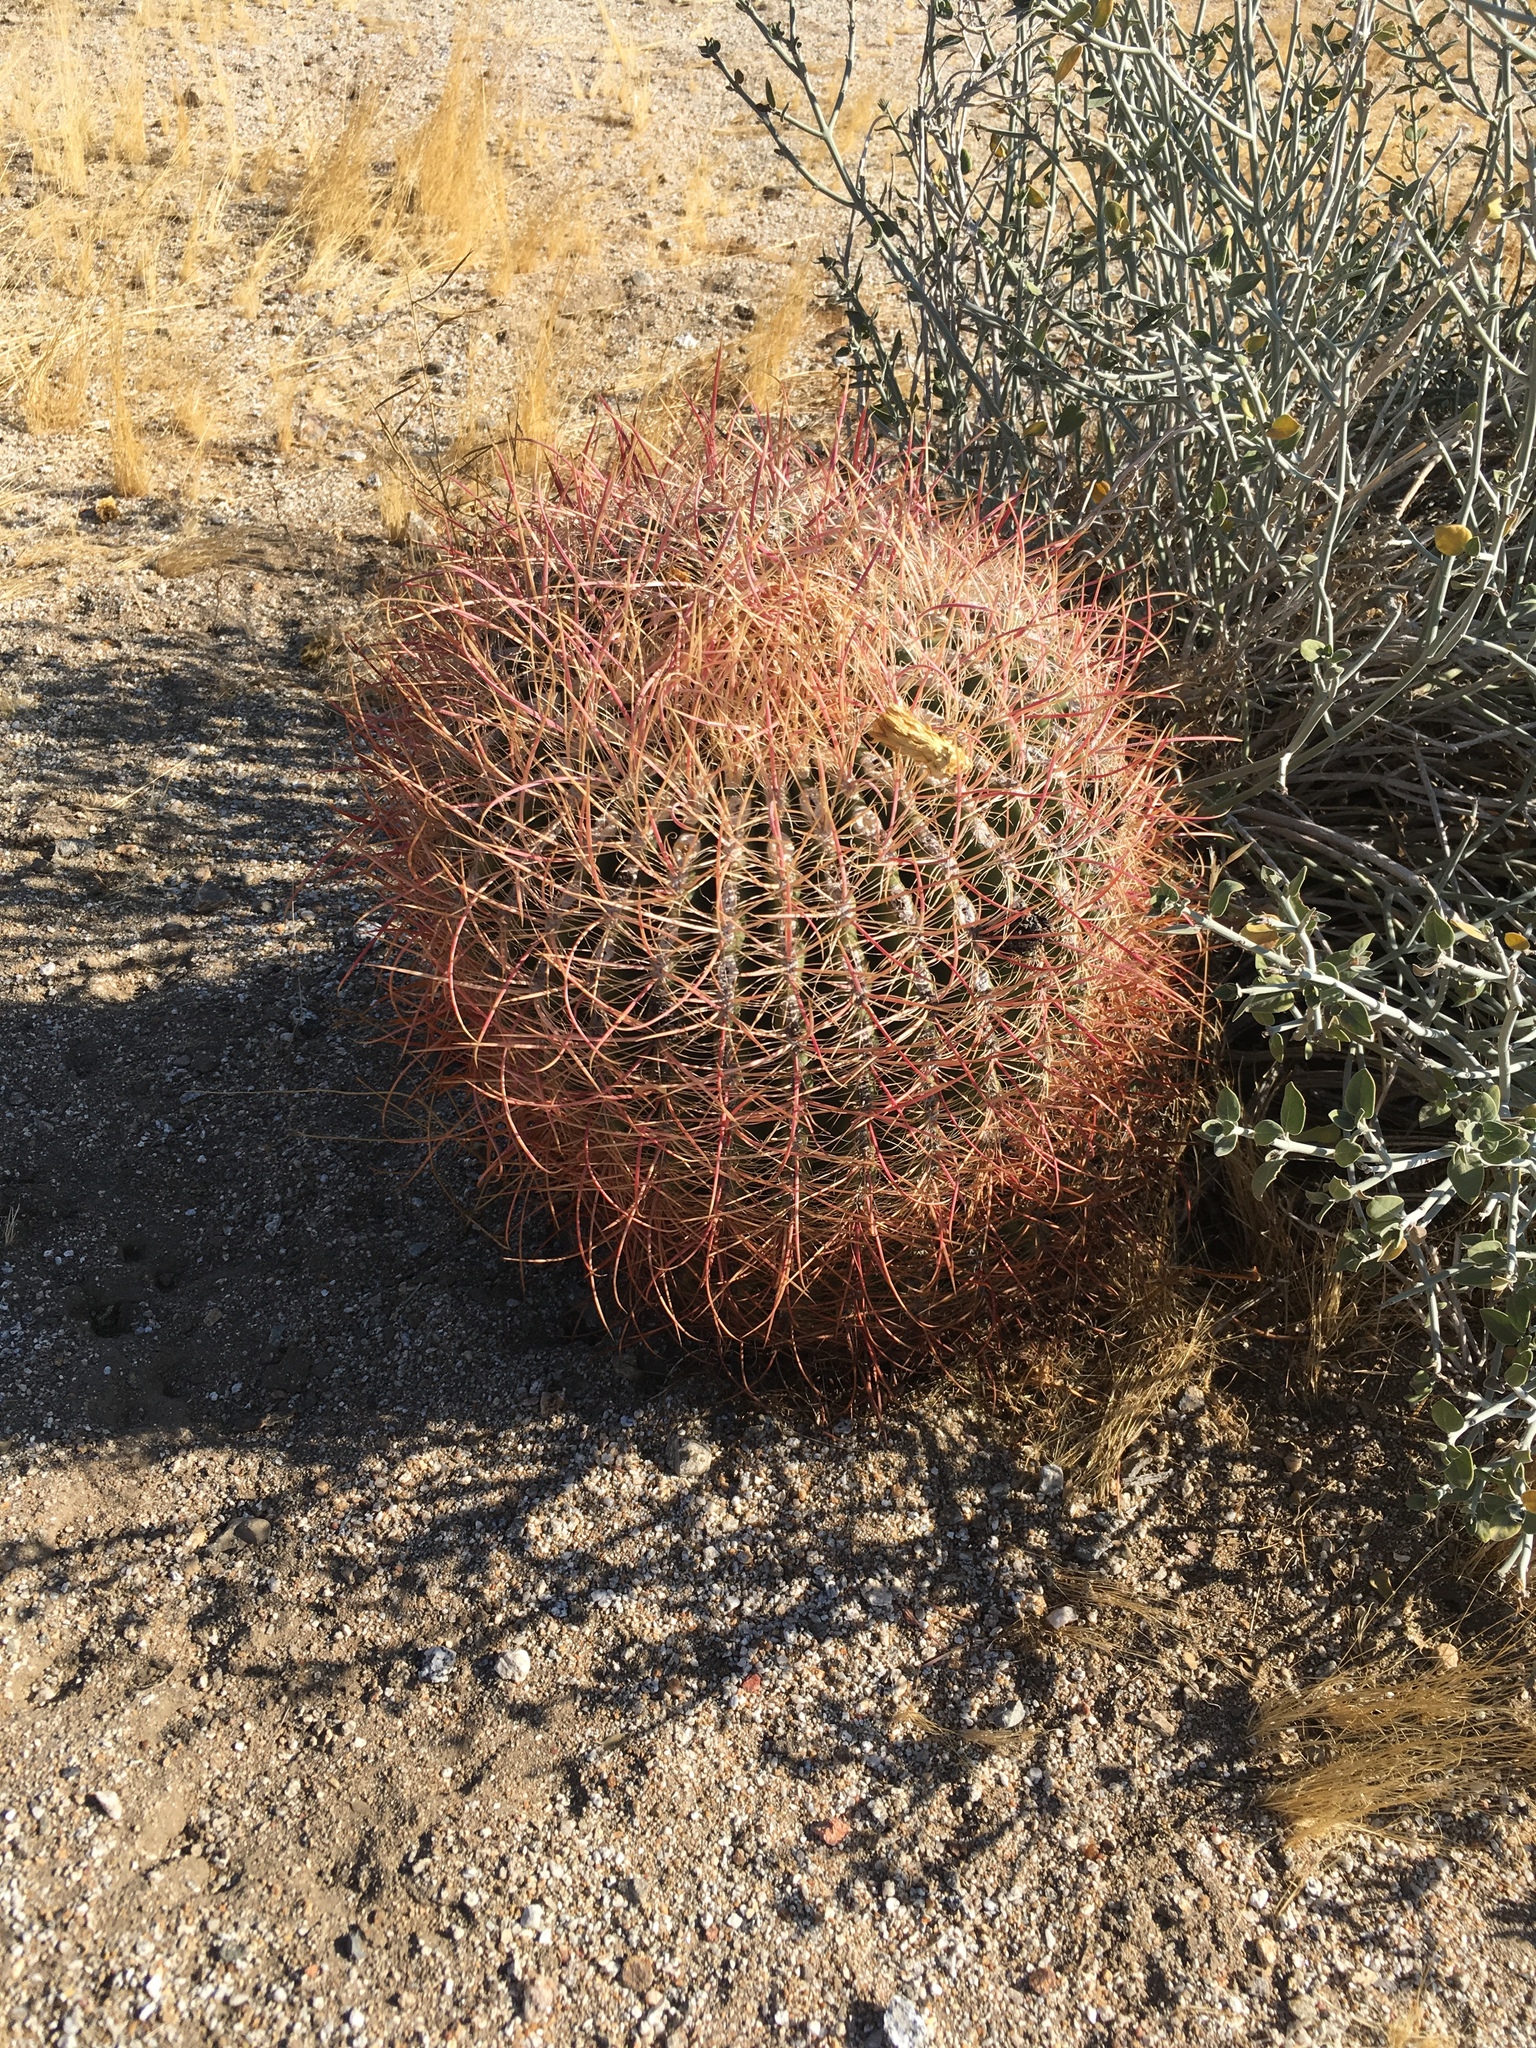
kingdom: Plantae
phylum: Tracheophyta
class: Magnoliopsida
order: Caryophyllales
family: Cactaceae
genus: Ferocactus
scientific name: Ferocactus cylindraceus
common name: California barrel cactus
